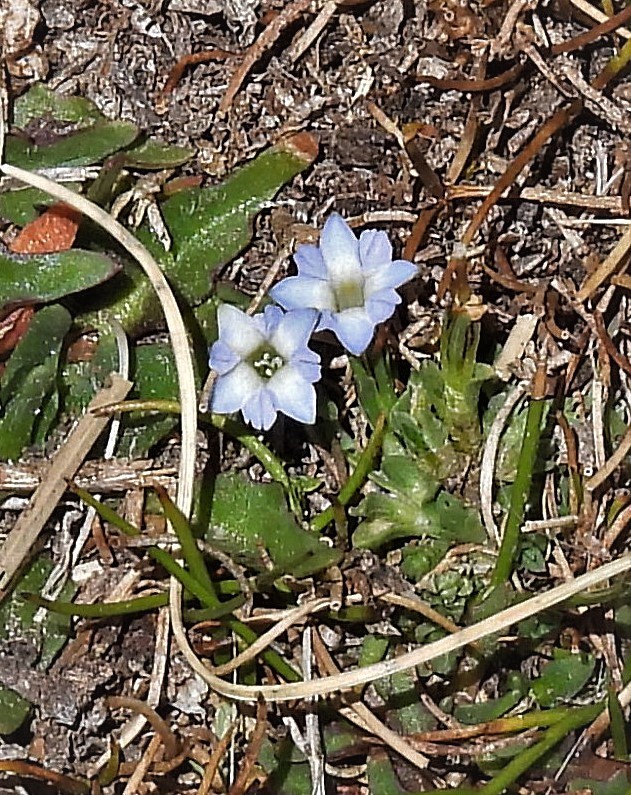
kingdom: Plantae
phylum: Tracheophyta
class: Magnoliopsida
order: Gentianales
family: Gentianaceae
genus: Gentiana
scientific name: Gentiana sedifolia
